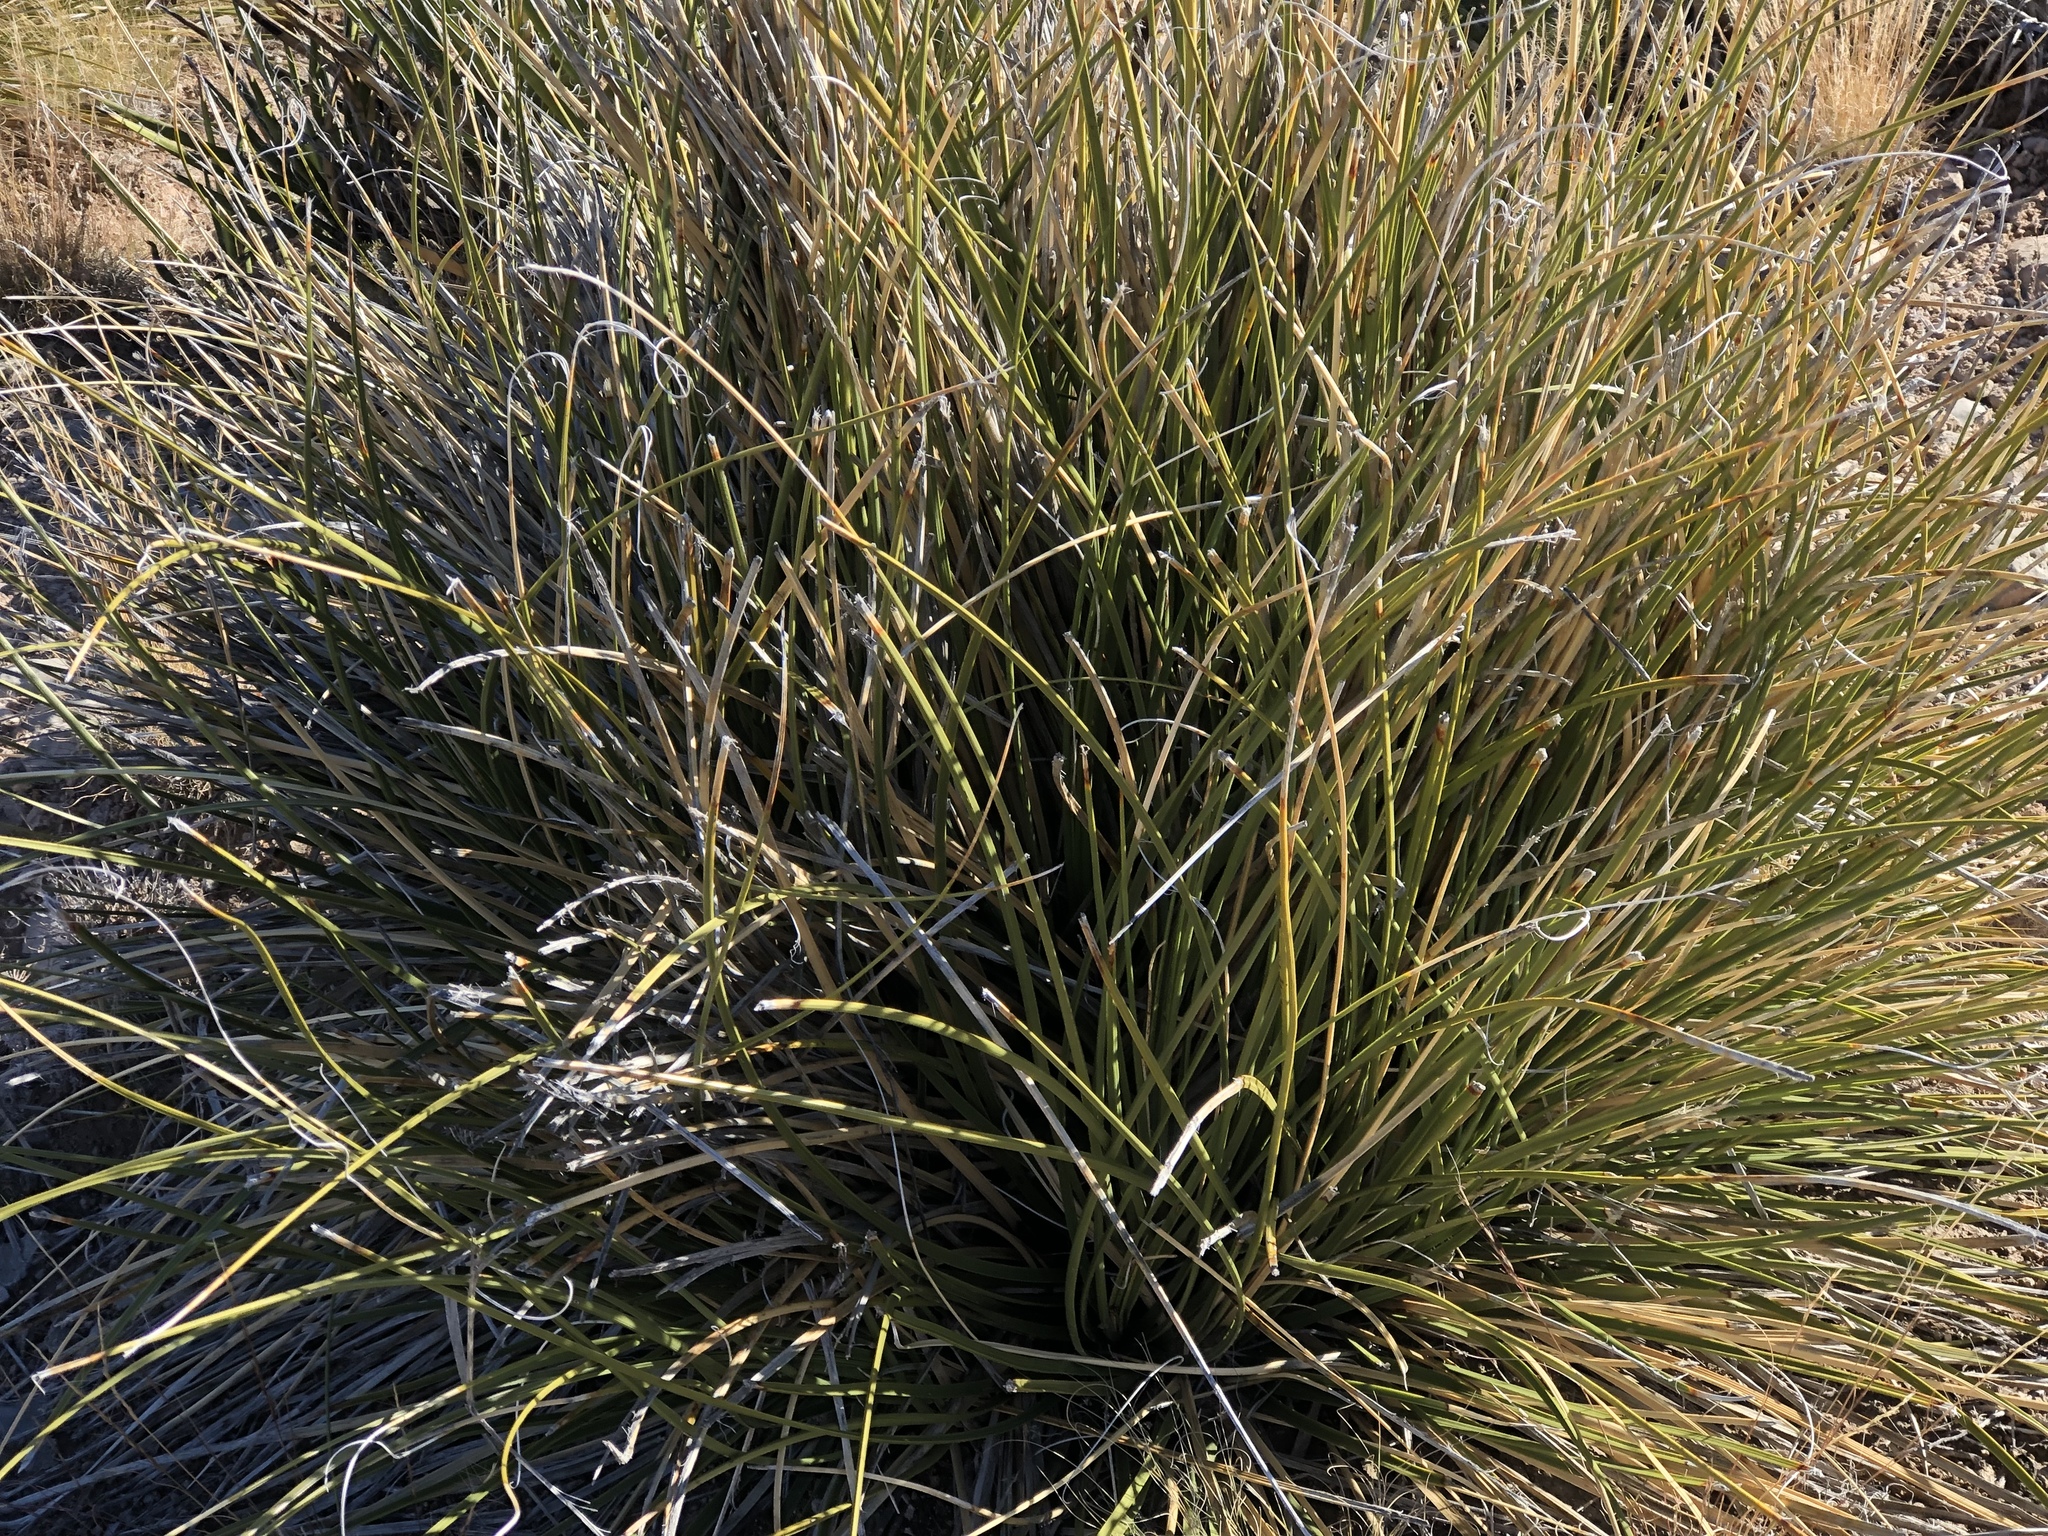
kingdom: Plantae
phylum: Tracheophyta
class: Liliopsida
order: Asparagales
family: Asparagaceae
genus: Nolina
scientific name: Nolina microcarpa
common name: Bear-grass
